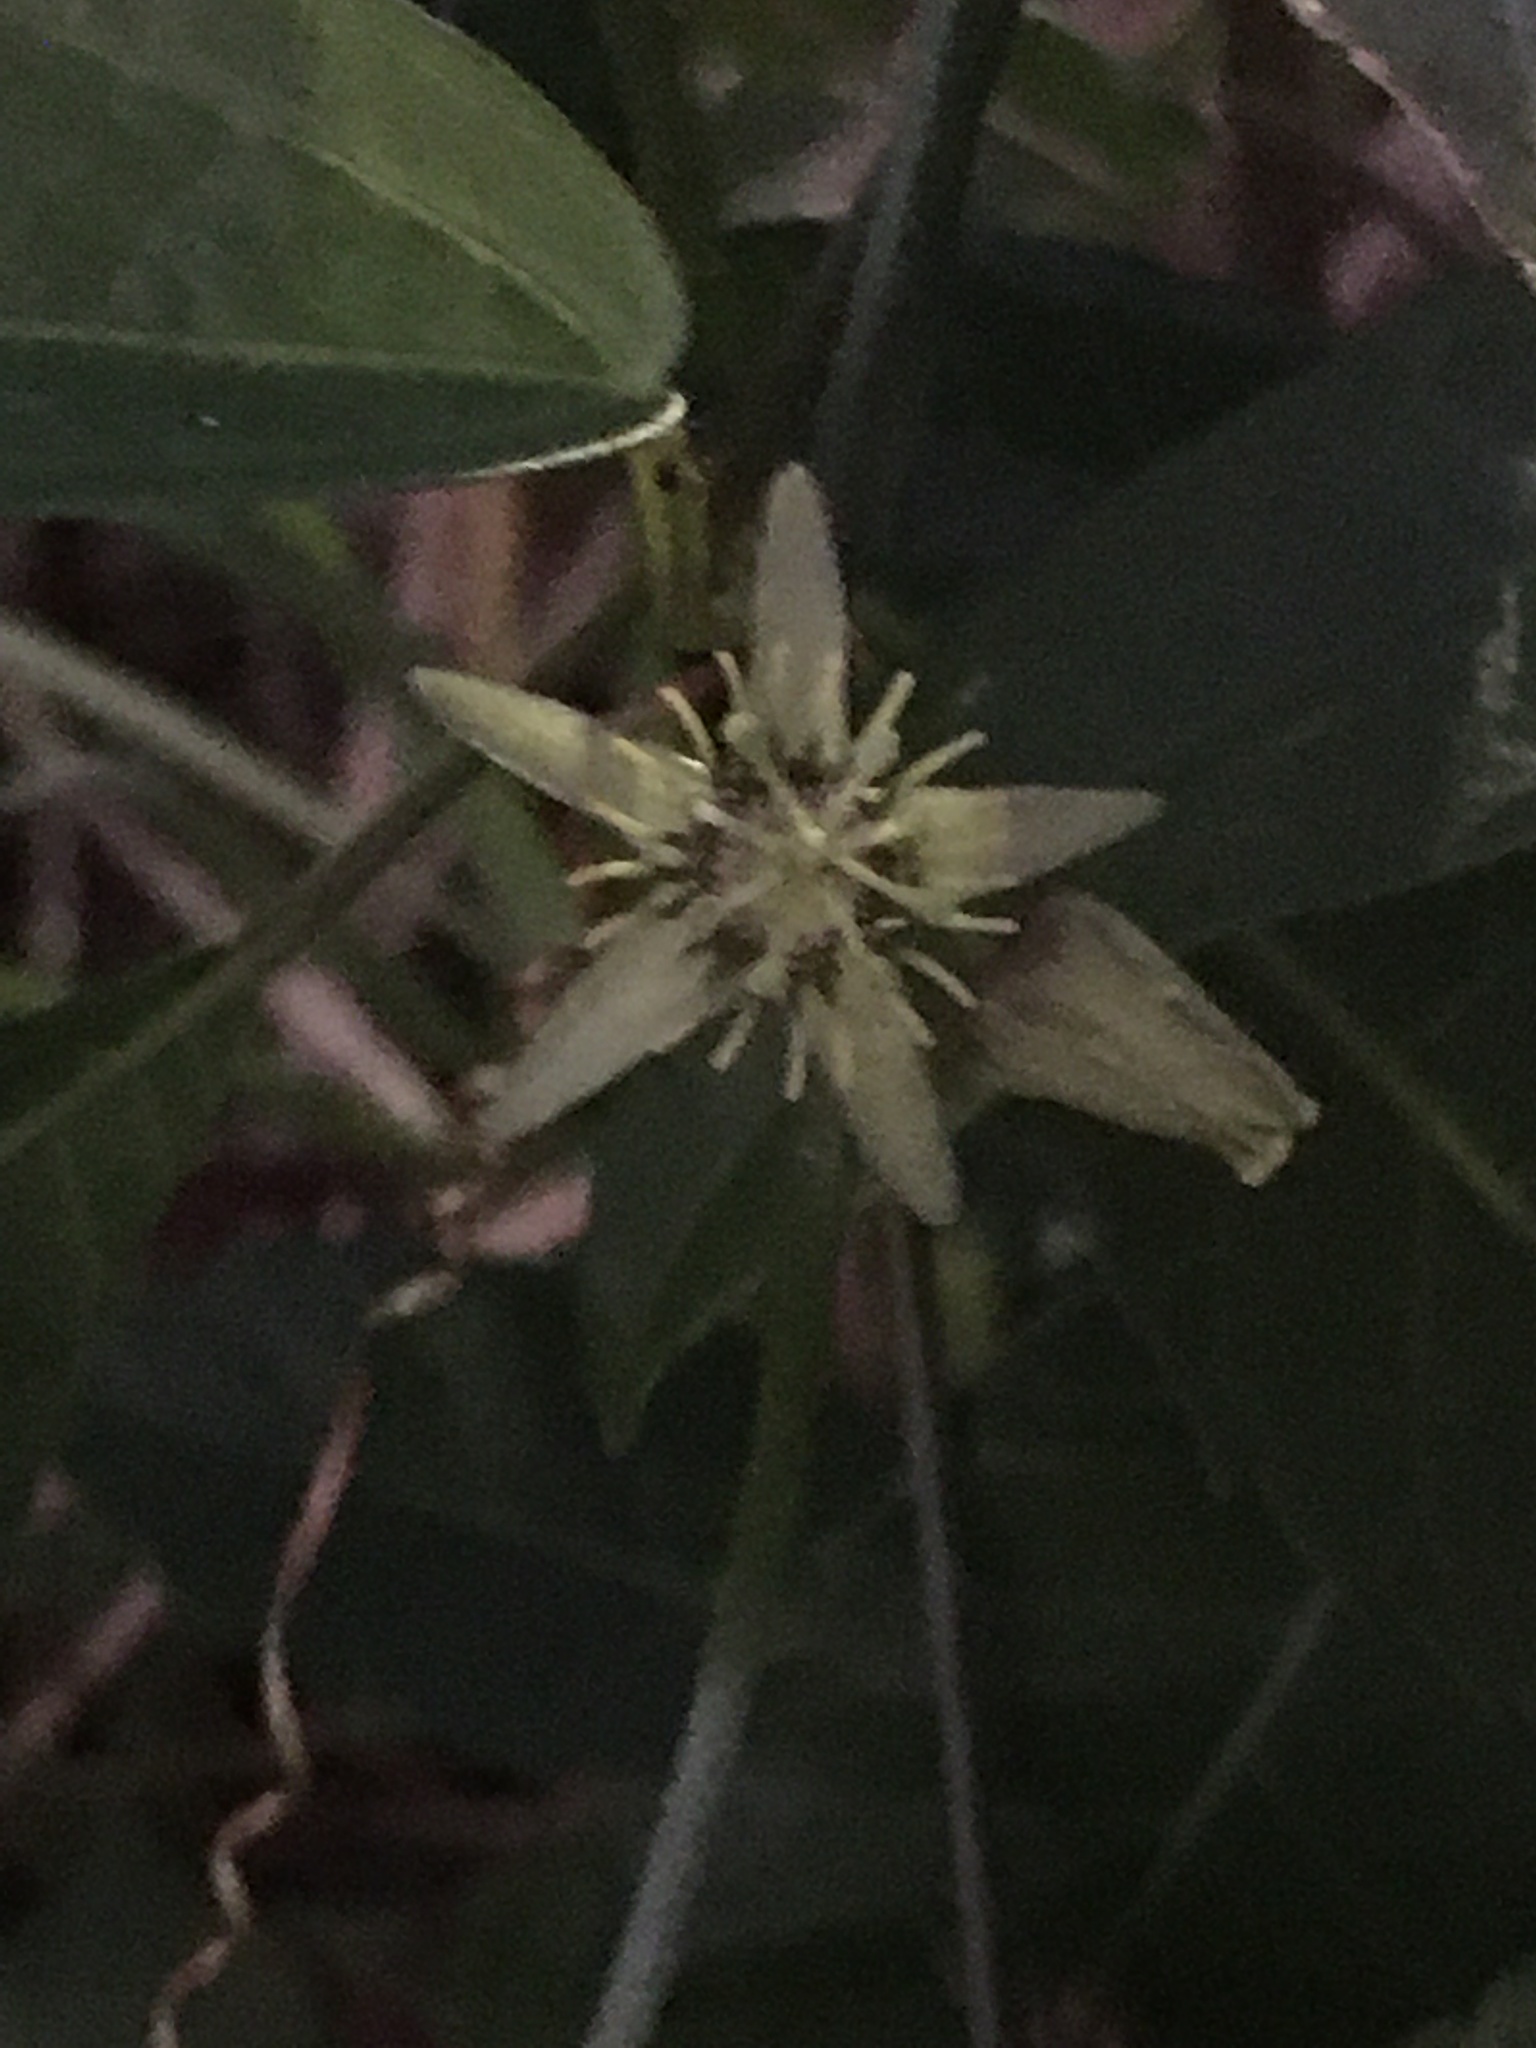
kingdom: Plantae
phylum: Tracheophyta
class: Magnoliopsida
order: Malpighiales
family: Passifloraceae
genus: Passiflora
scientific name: Passiflora pallida
